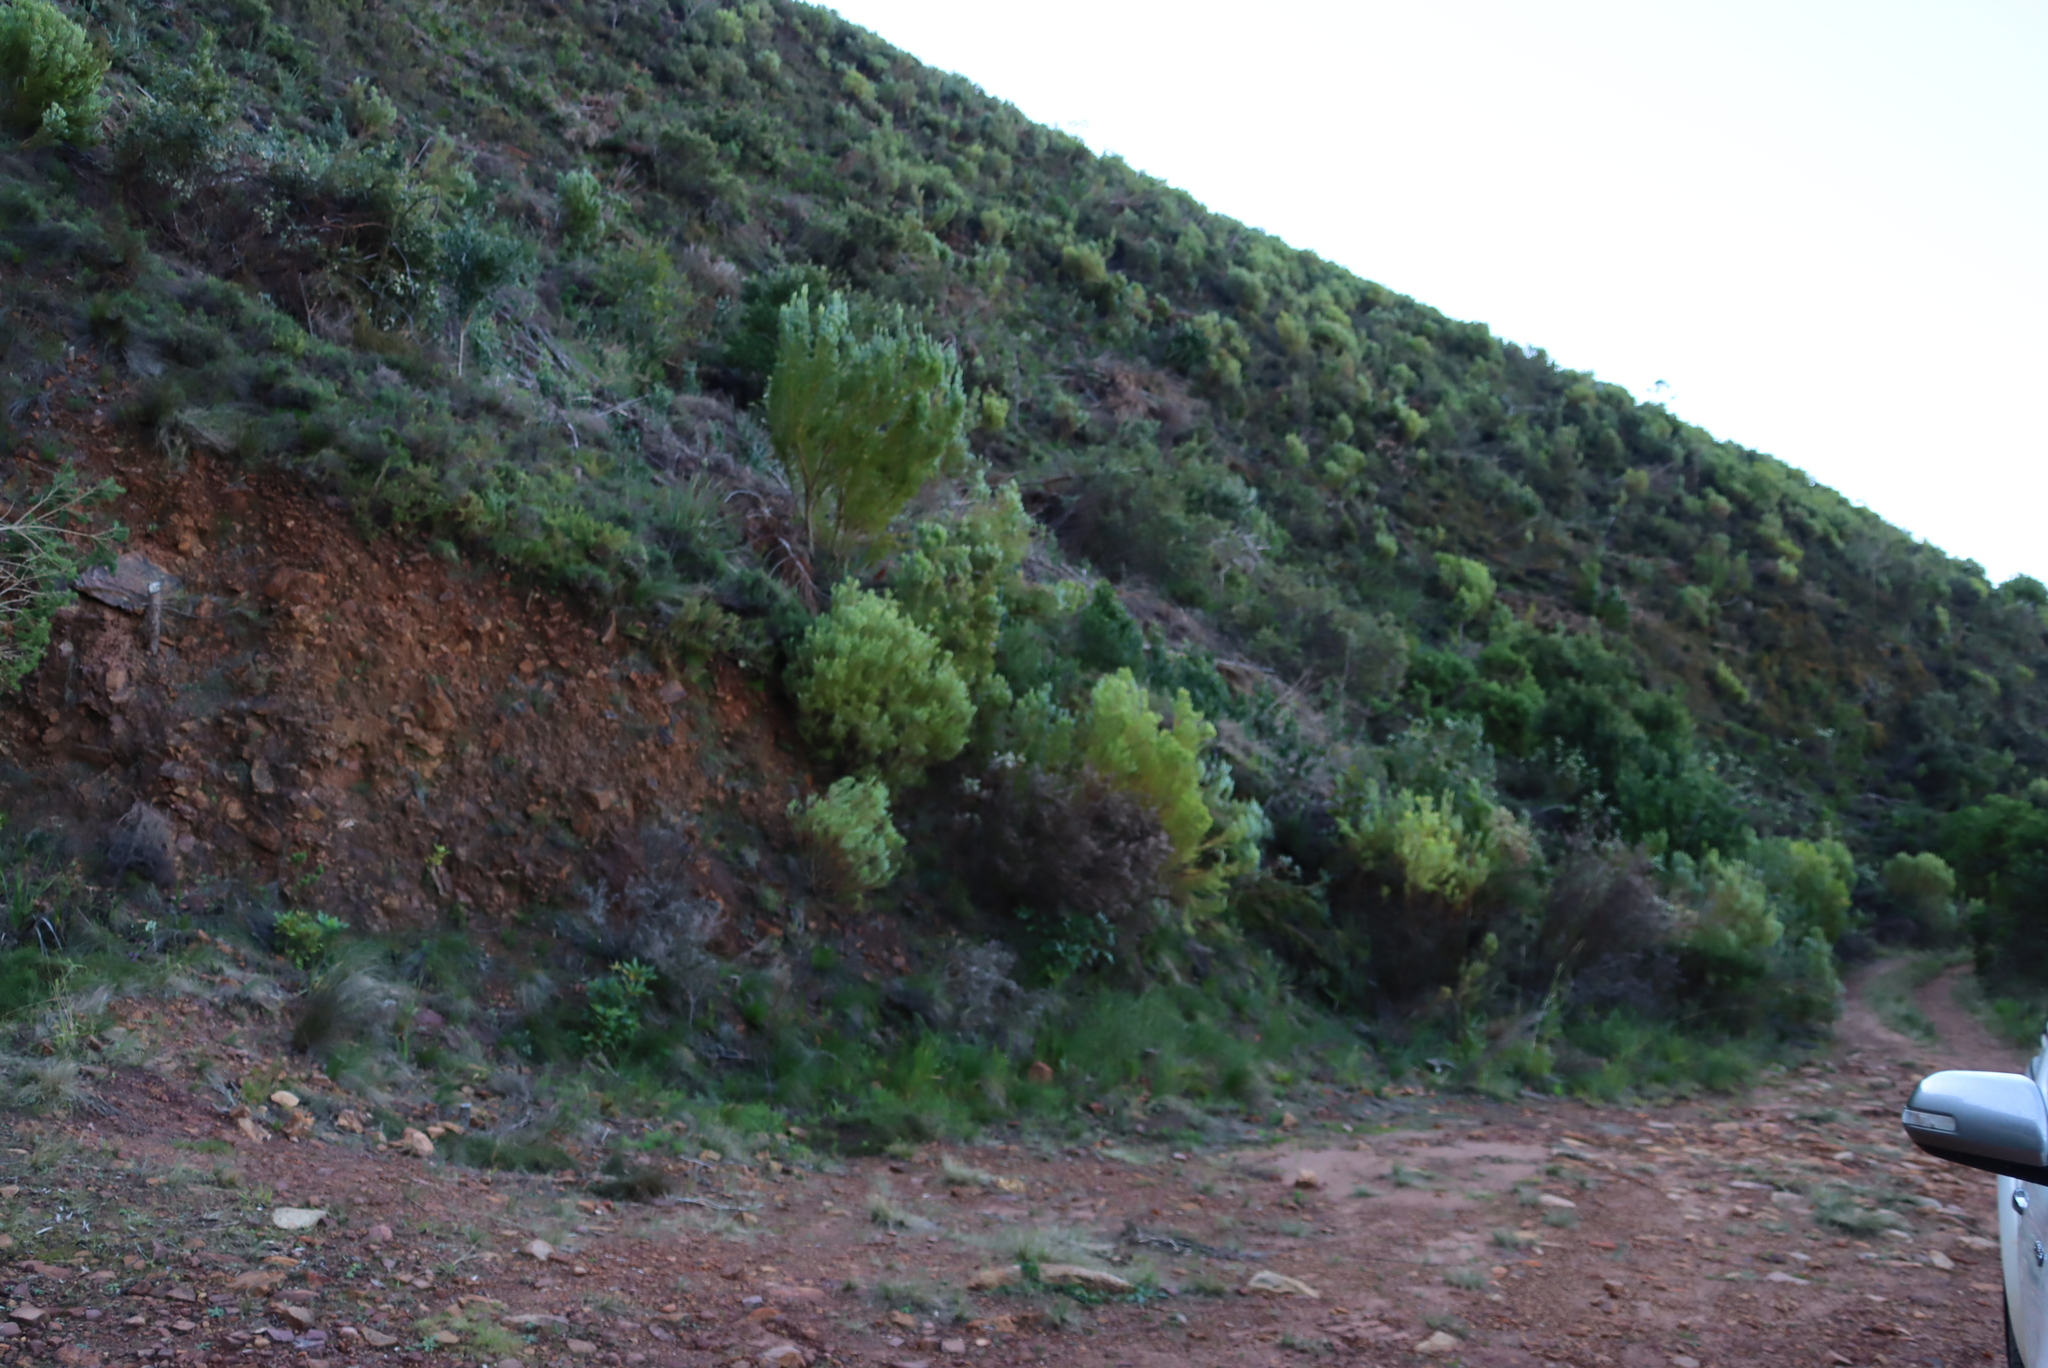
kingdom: Plantae
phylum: Tracheophyta
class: Magnoliopsida
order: Proteales
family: Proteaceae
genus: Leucadendron
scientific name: Leucadendron xanthoconus
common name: Sickle-leaf conebush
